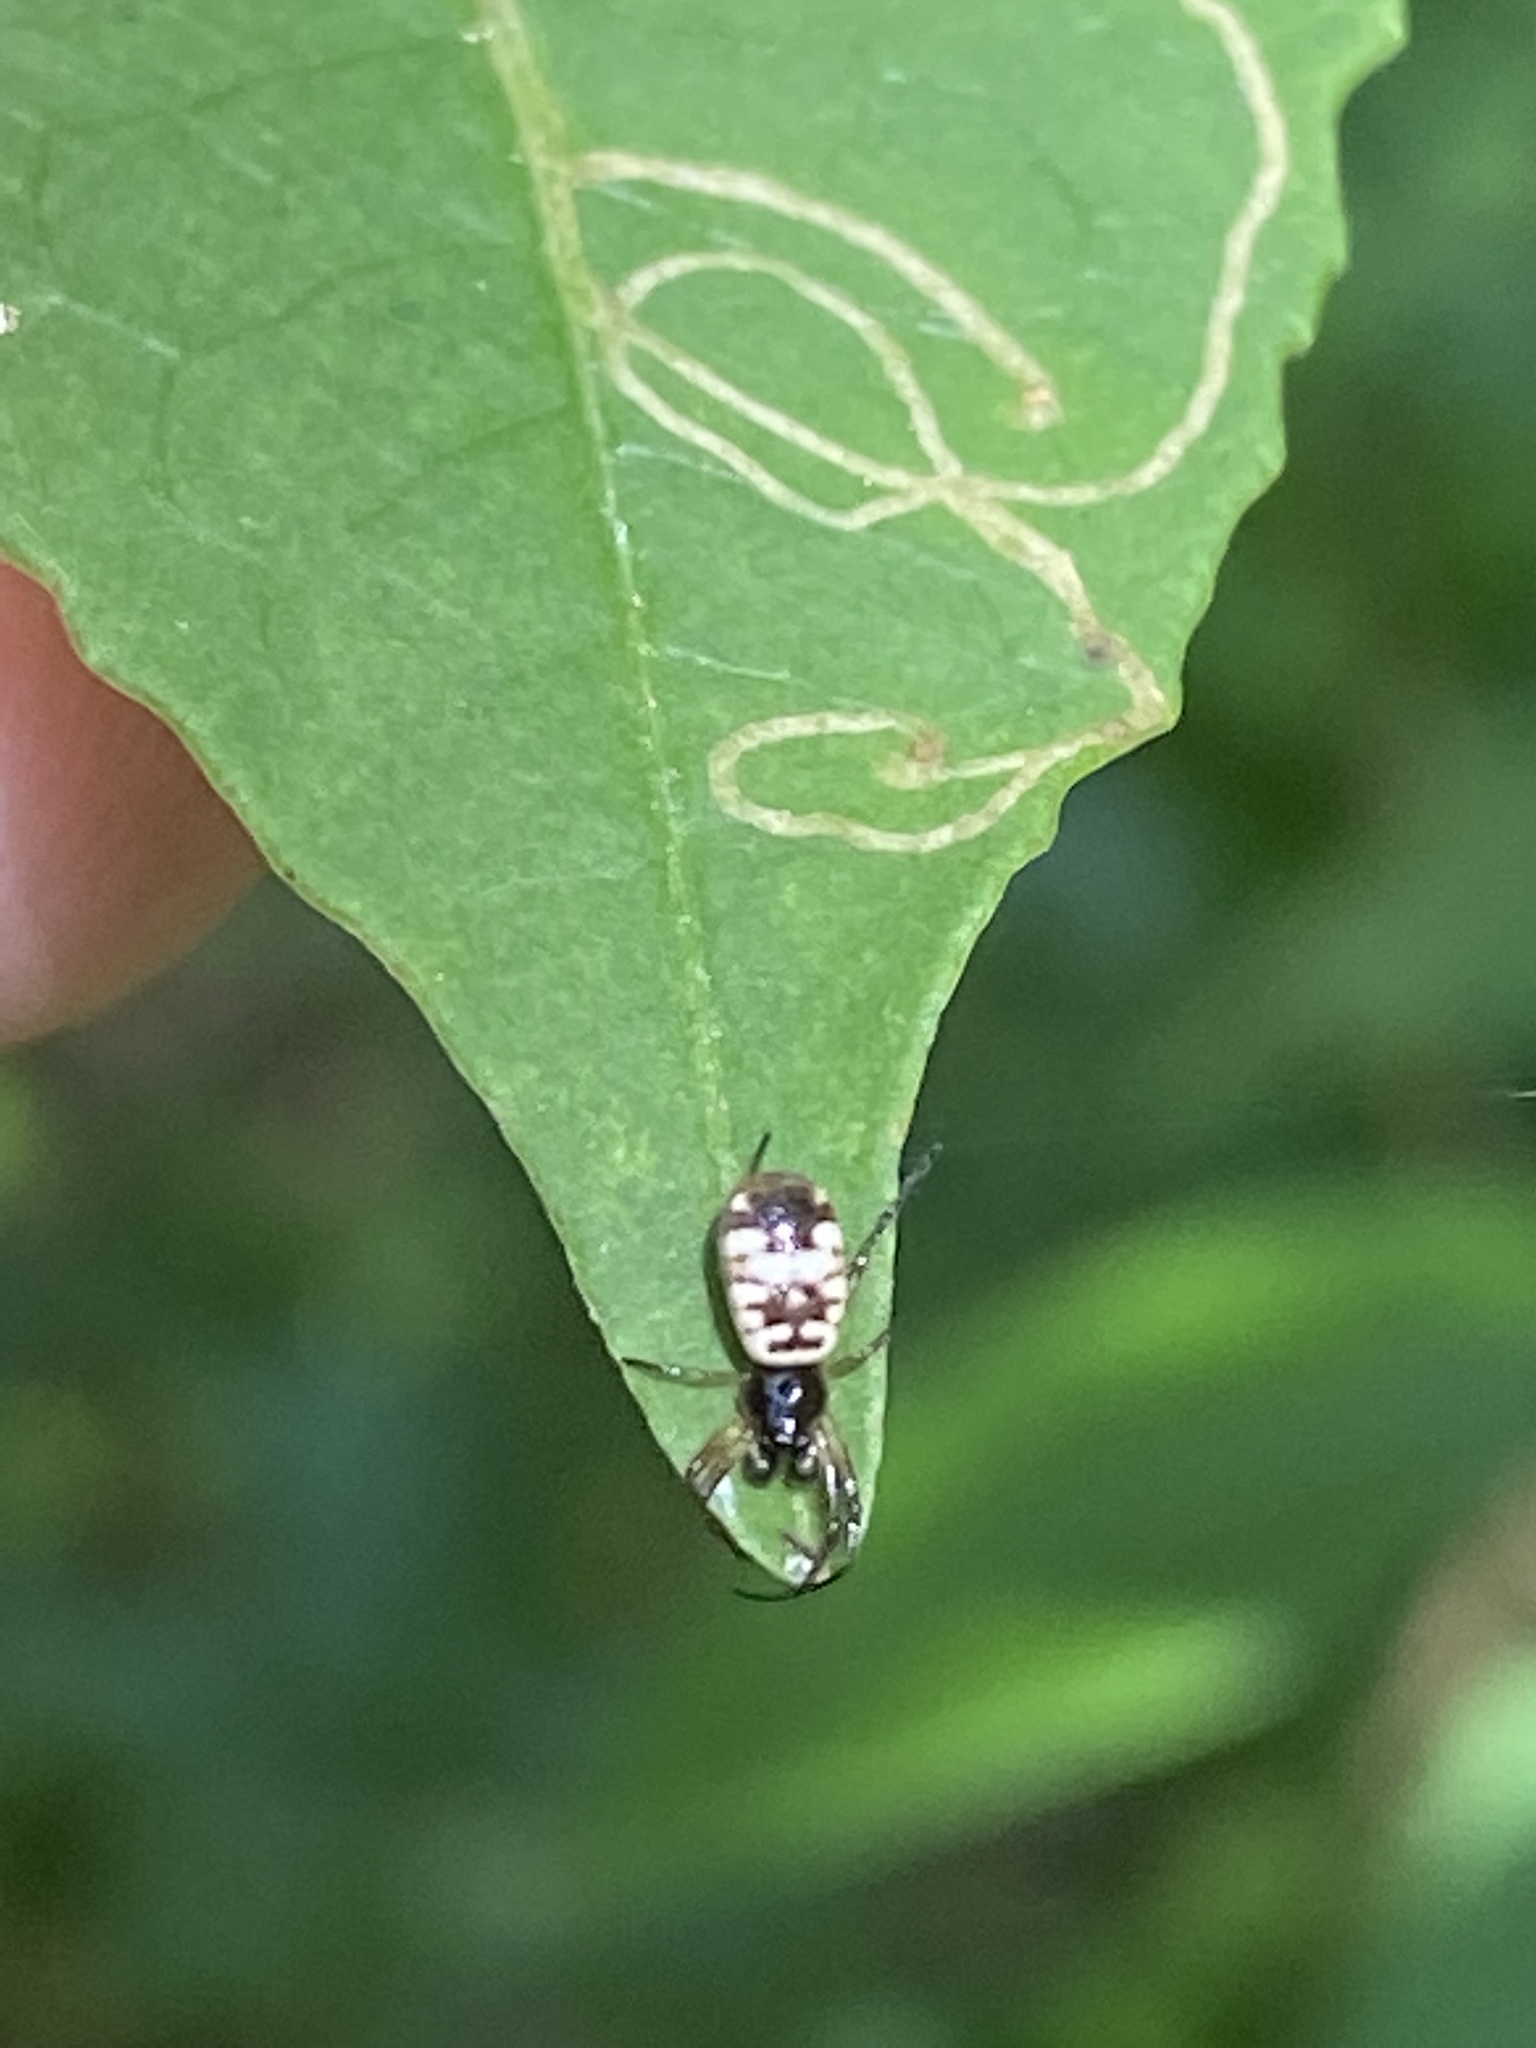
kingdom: Animalia
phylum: Arthropoda
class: Arachnida
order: Araneae
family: Araneidae
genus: Micrathena
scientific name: Micrathena mitrata
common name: Orb weavers
